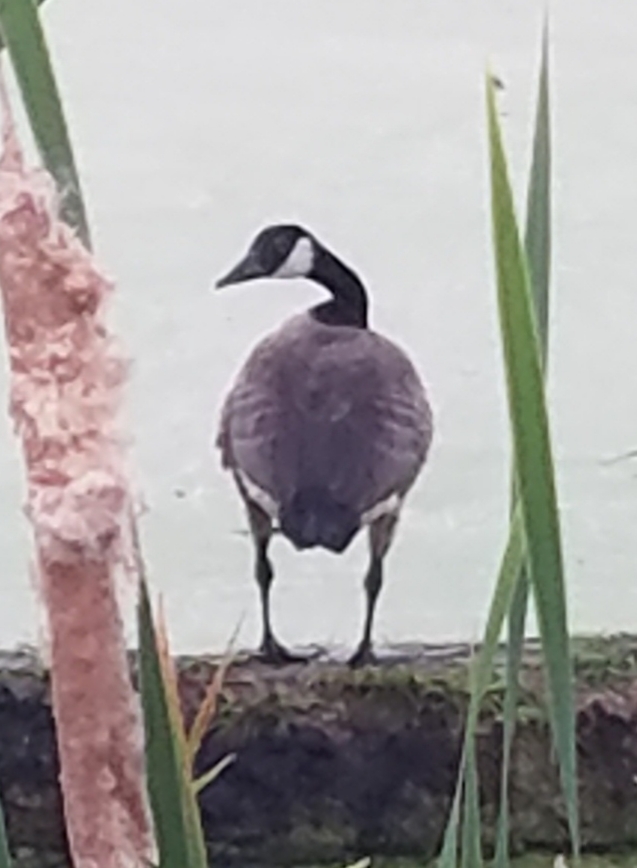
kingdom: Animalia
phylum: Chordata
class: Aves
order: Anseriformes
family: Anatidae
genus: Branta
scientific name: Branta canadensis
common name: Canada goose
